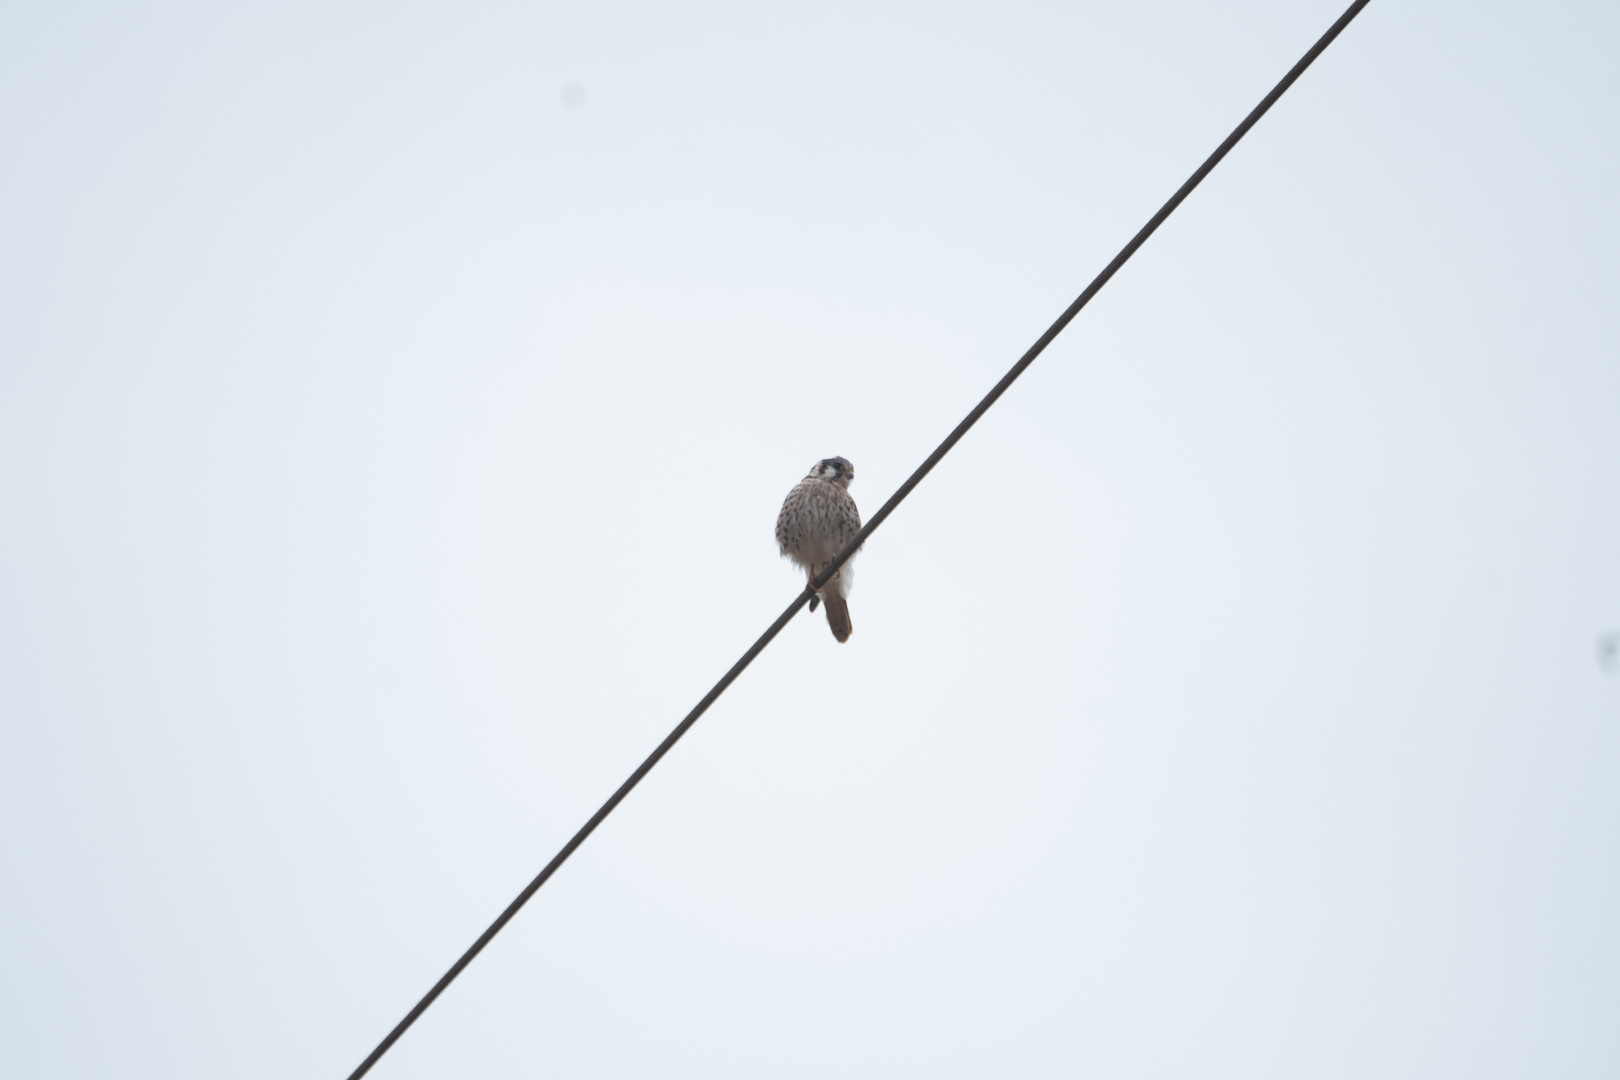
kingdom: Animalia
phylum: Chordata
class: Aves
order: Falconiformes
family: Falconidae
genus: Falco
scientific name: Falco sparverius
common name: American kestrel
